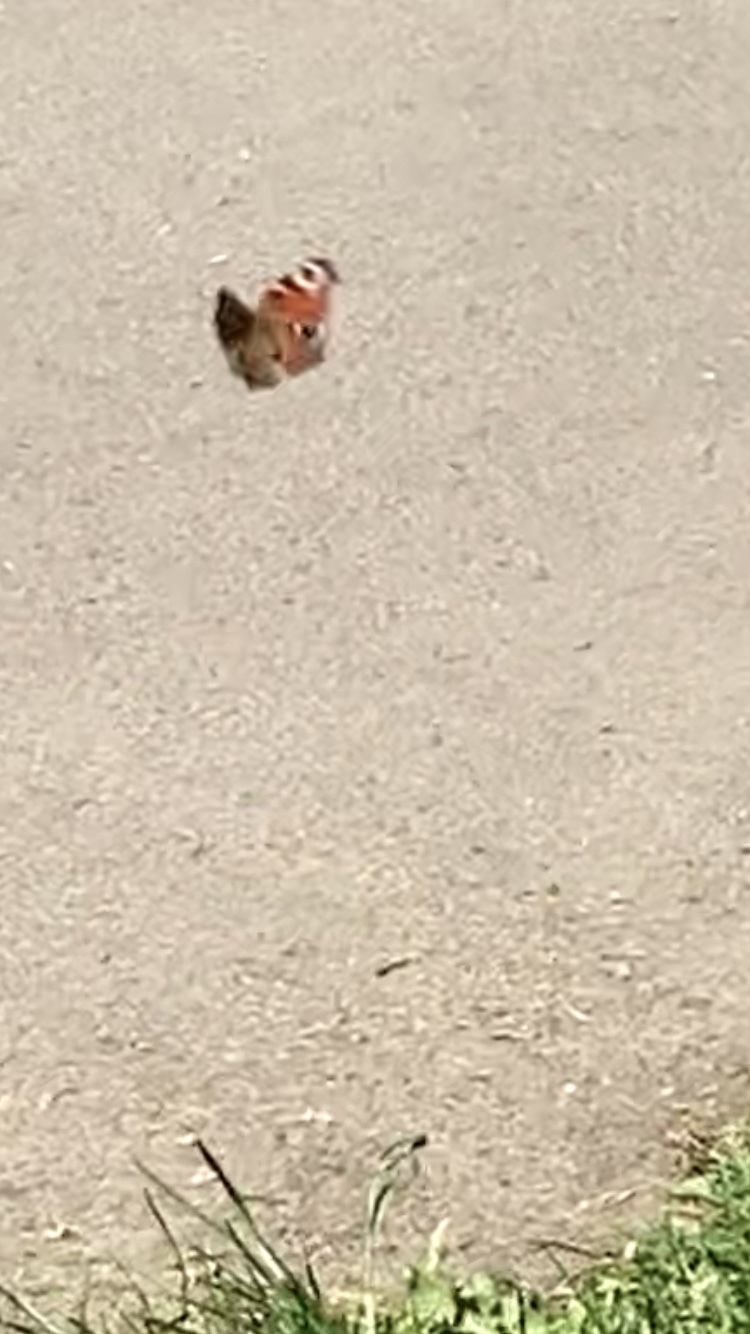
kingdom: Animalia
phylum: Arthropoda
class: Insecta
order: Lepidoptera
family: Nymphalidae
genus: Aglais
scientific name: Aglais io
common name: Peacock
